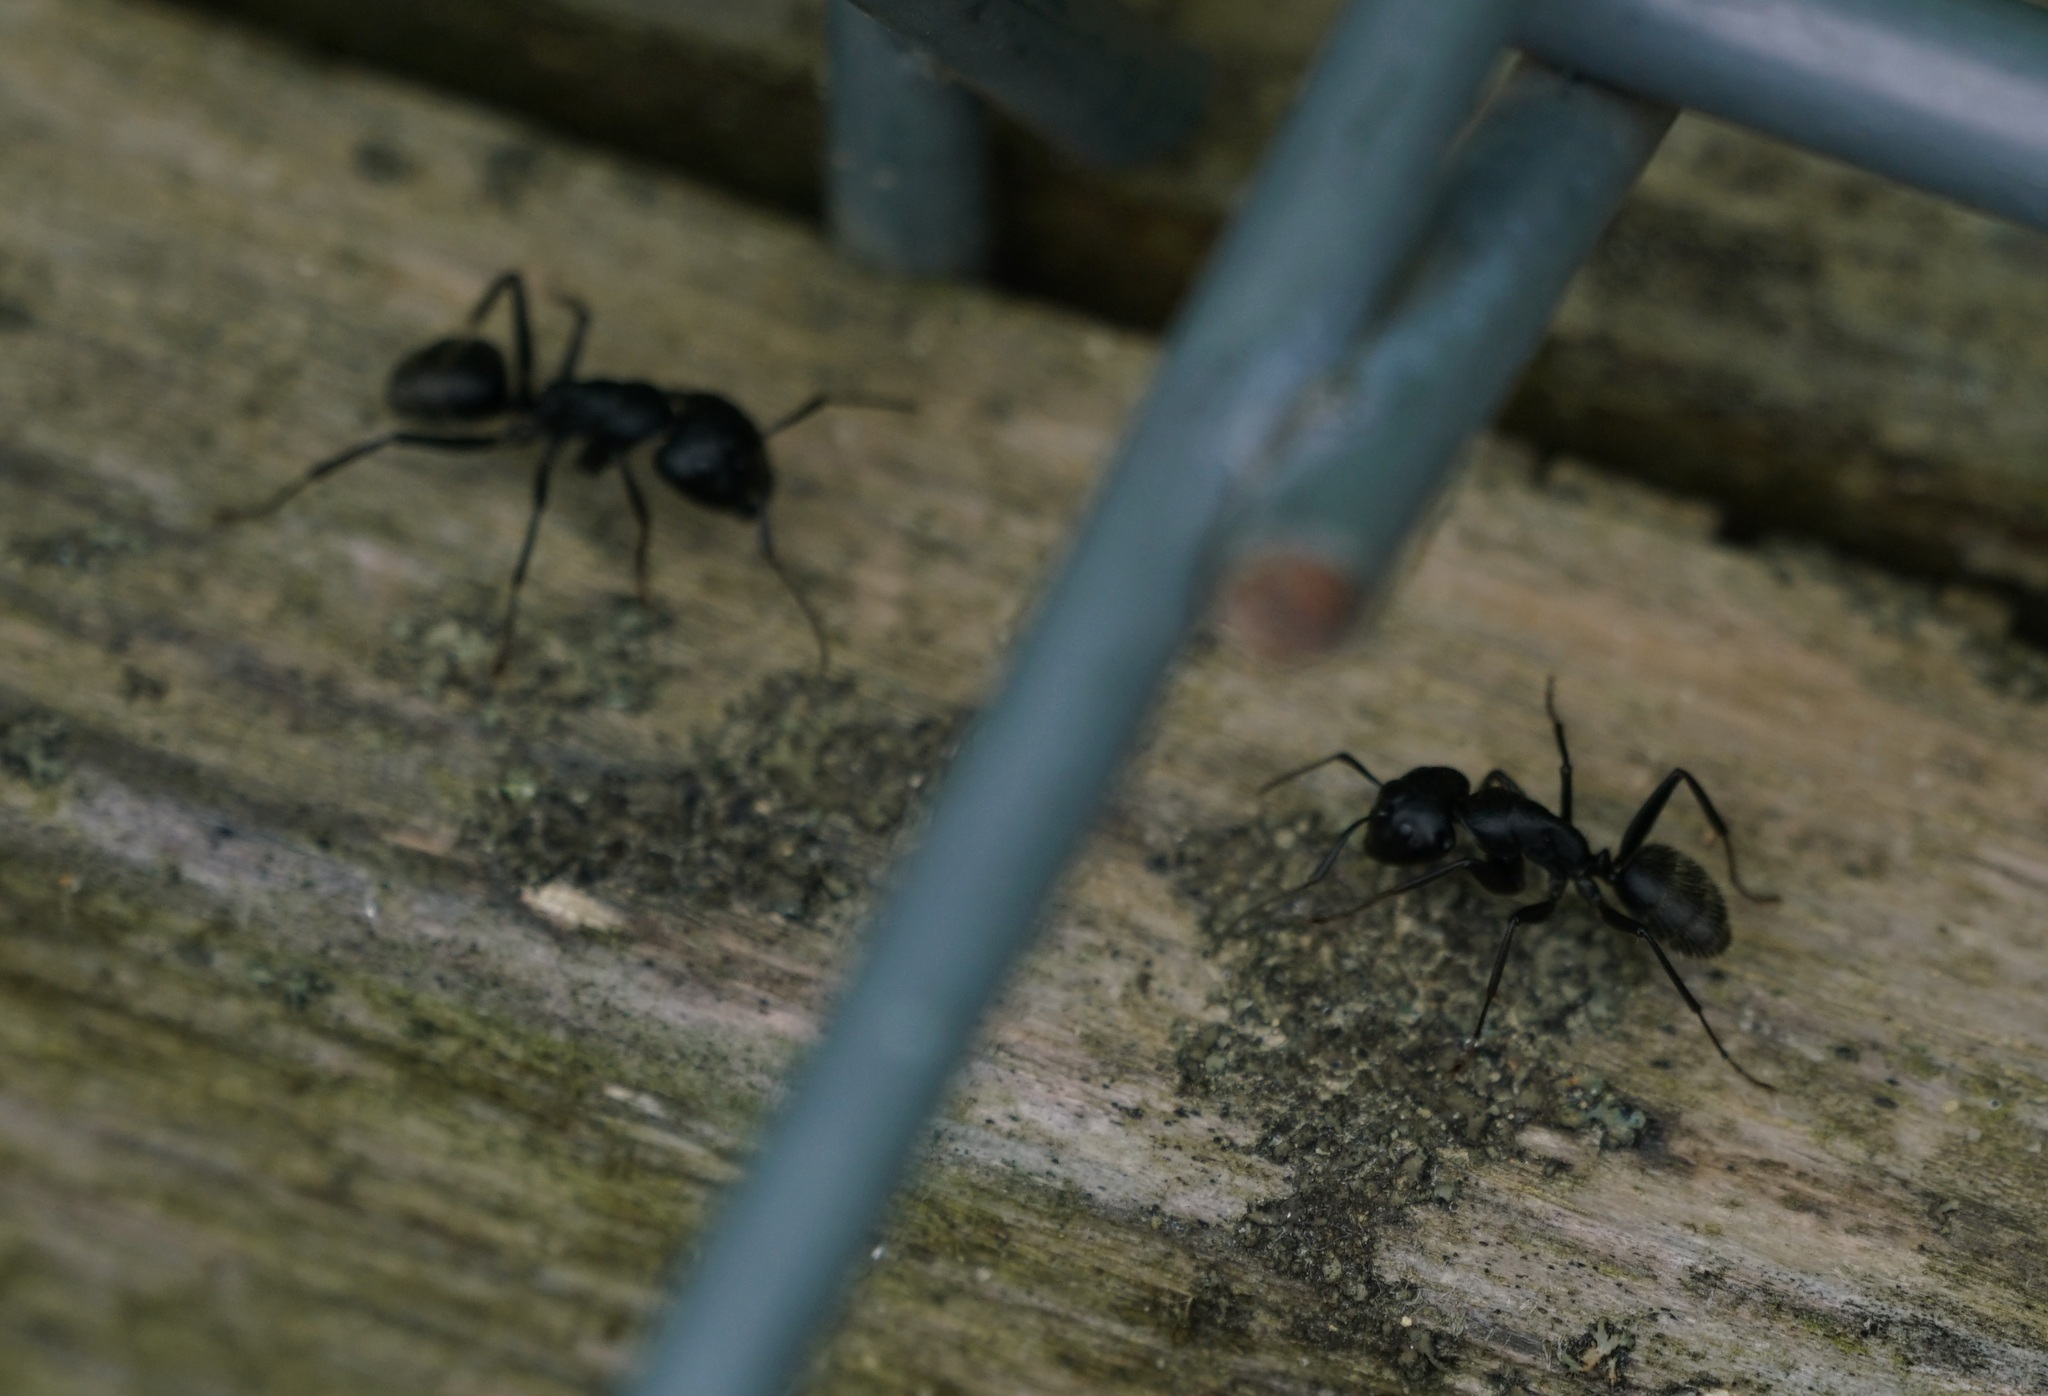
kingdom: Animalia
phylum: Arthropoda
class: Insecta
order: Hymenoptera
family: Formicidae
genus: Camponotus
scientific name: Camponotus vagus
